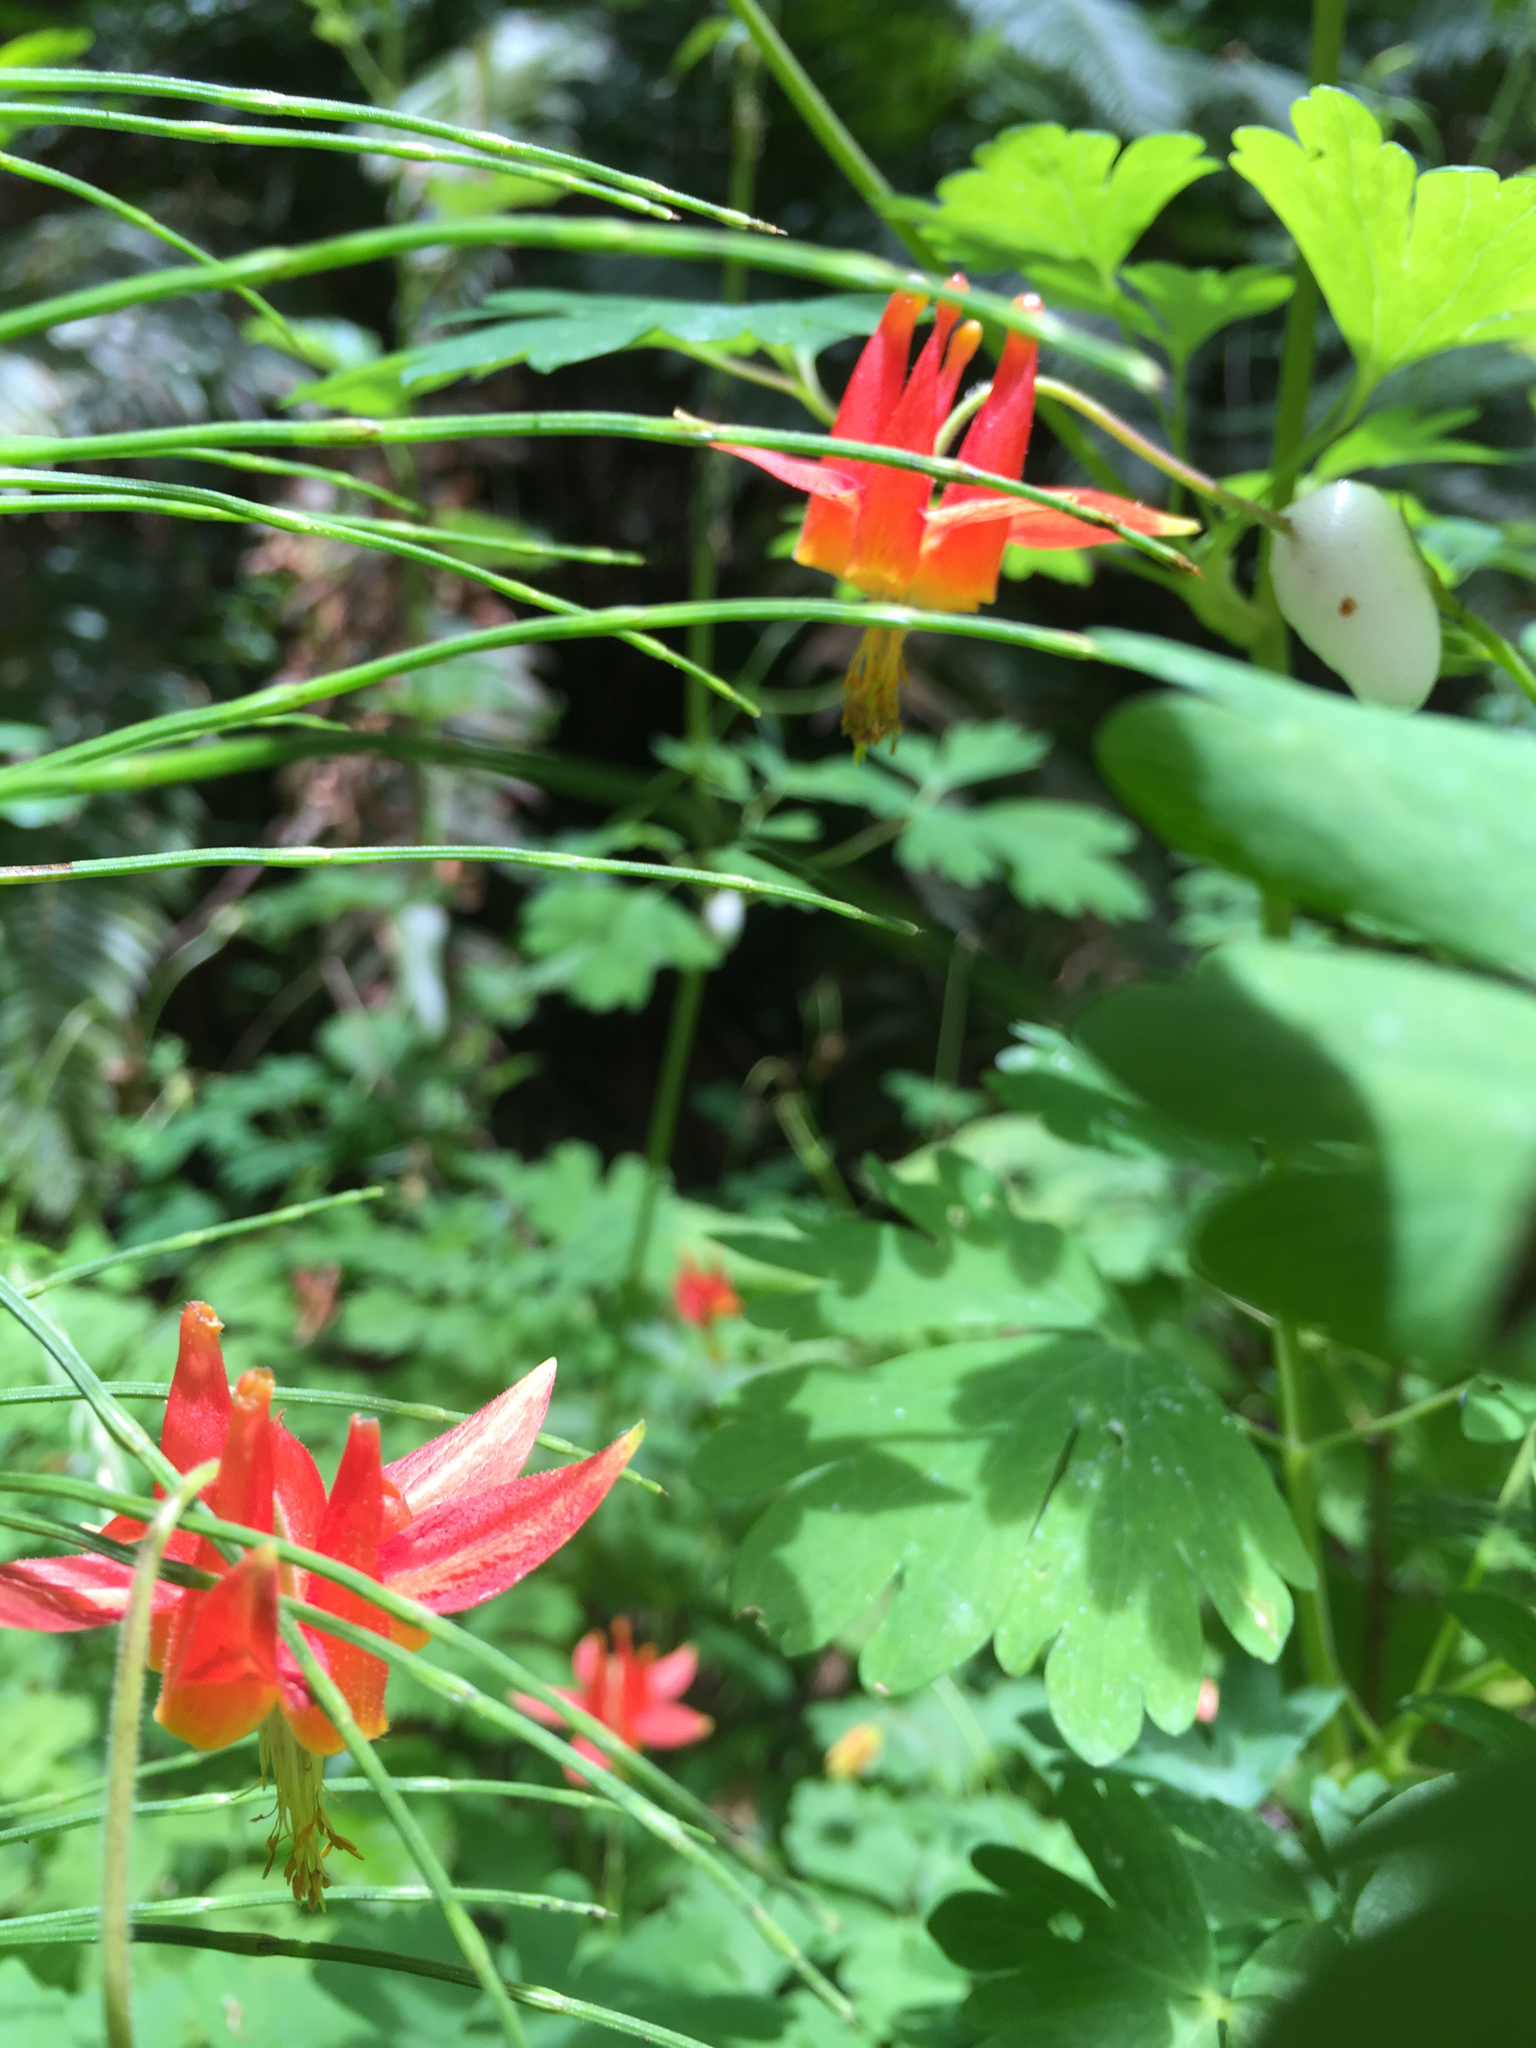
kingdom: Plantae
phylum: Tracheophyta
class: Magnoliopsida
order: Ranunculales
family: Ranunculaceae
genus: Aquilegia
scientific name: Aquilegia formosa
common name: Sitka columbine
